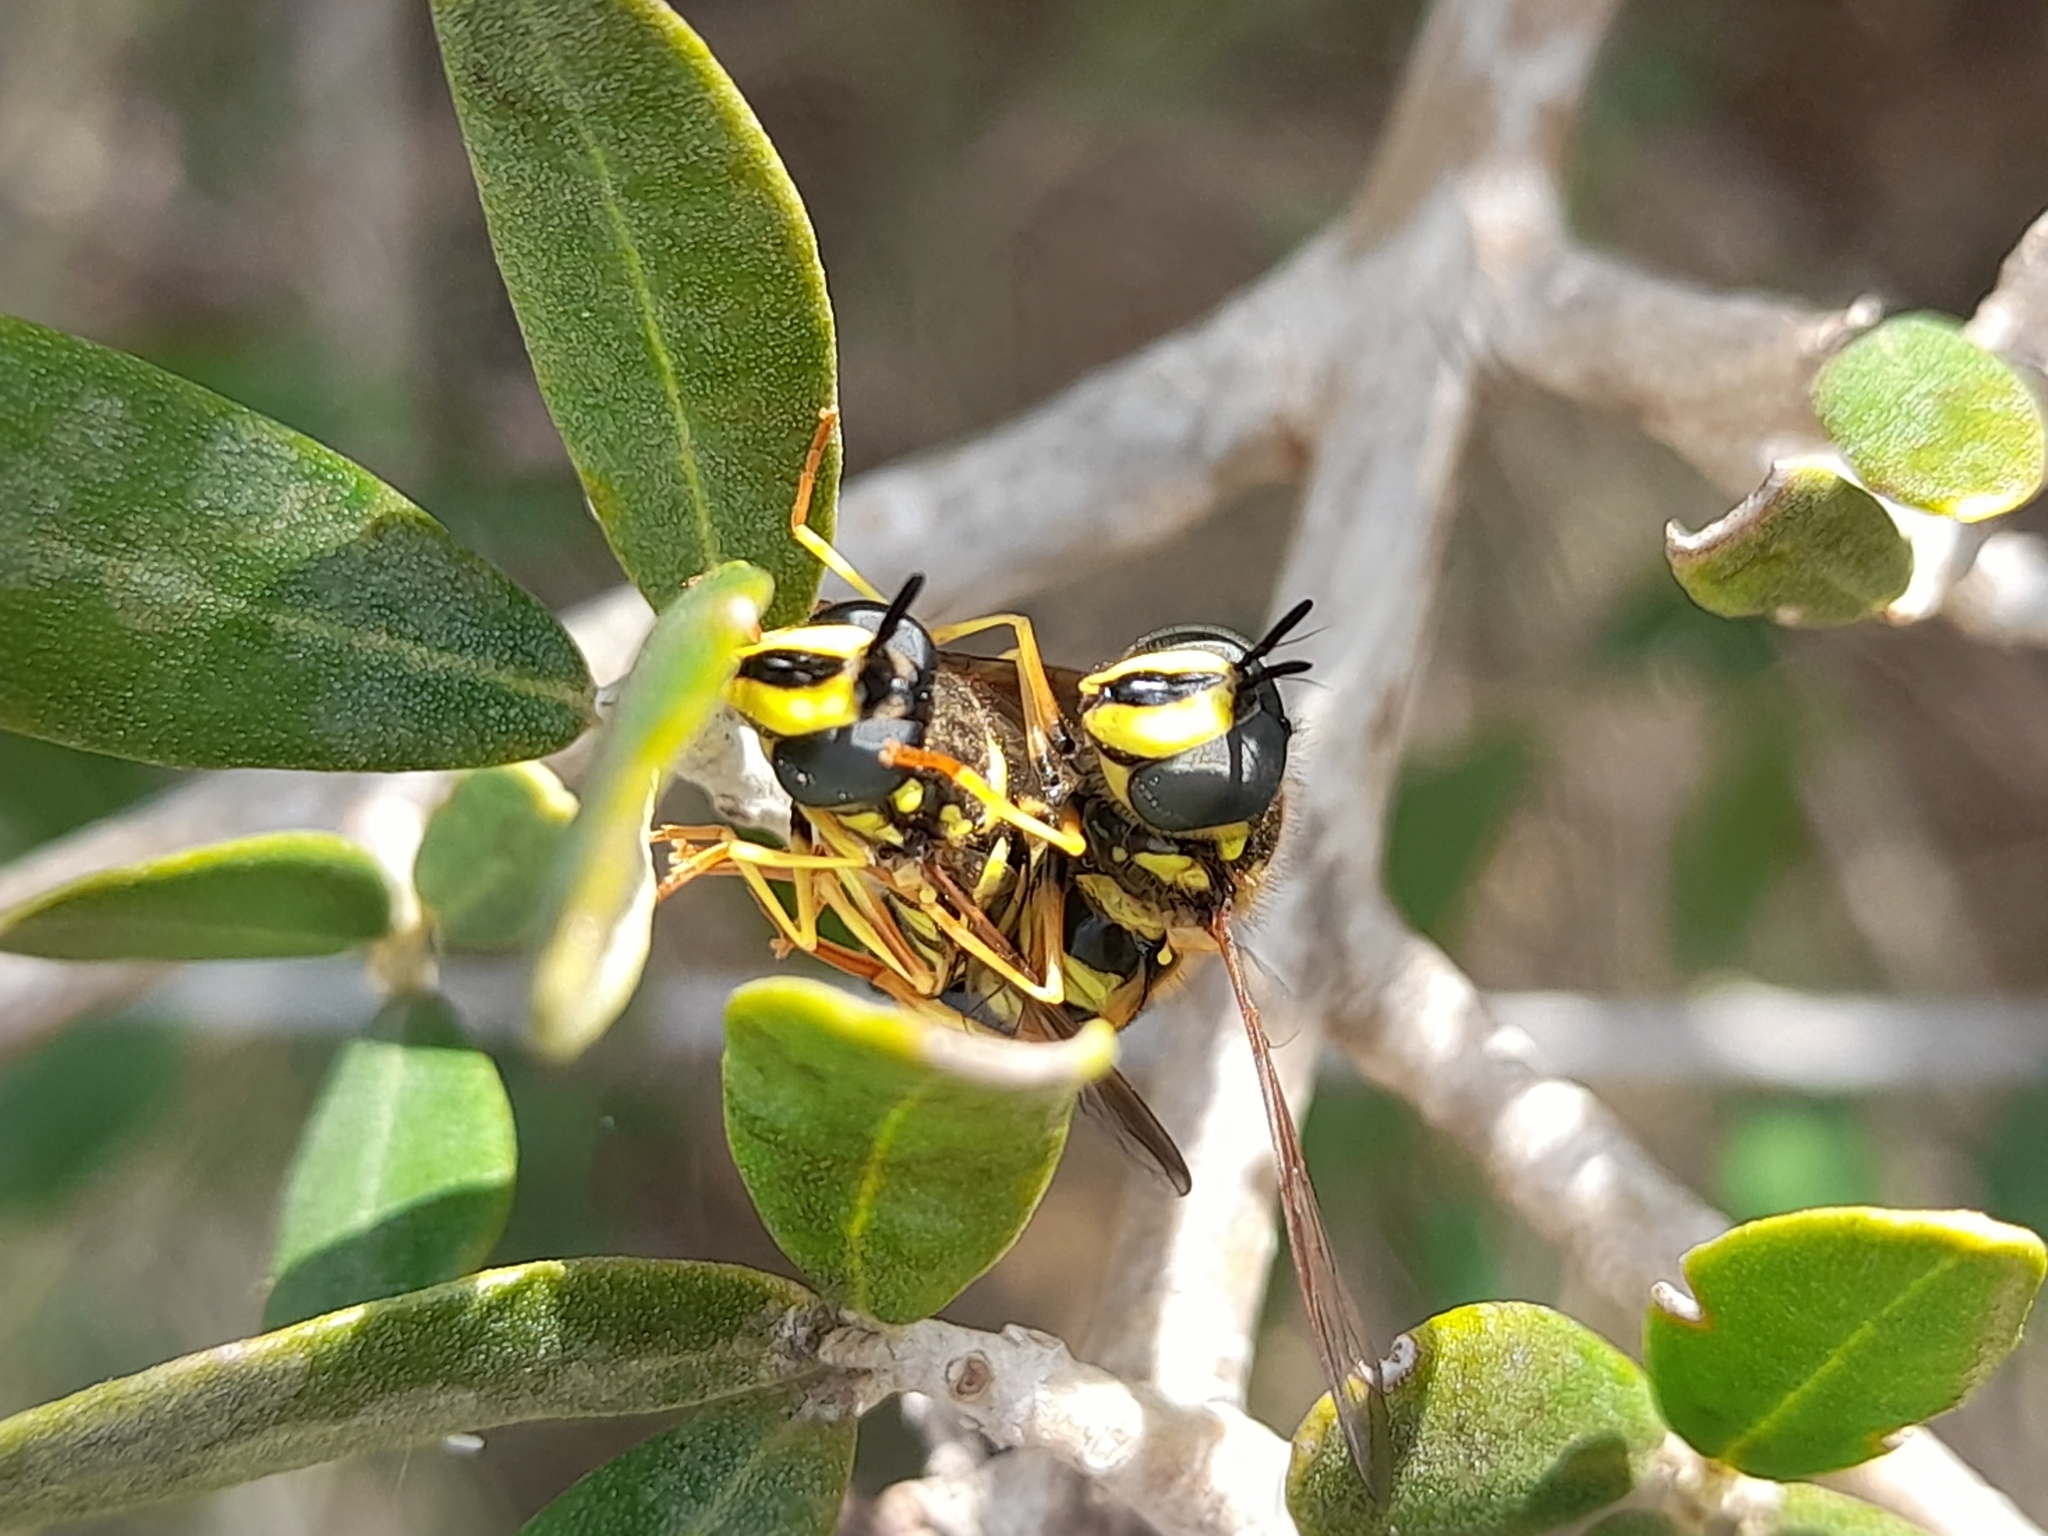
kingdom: Animalia
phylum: Arthropoda
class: Insecta
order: Diptera
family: Syrphidae
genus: Chrysotoxum
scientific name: Chrysotoxum intermedium
